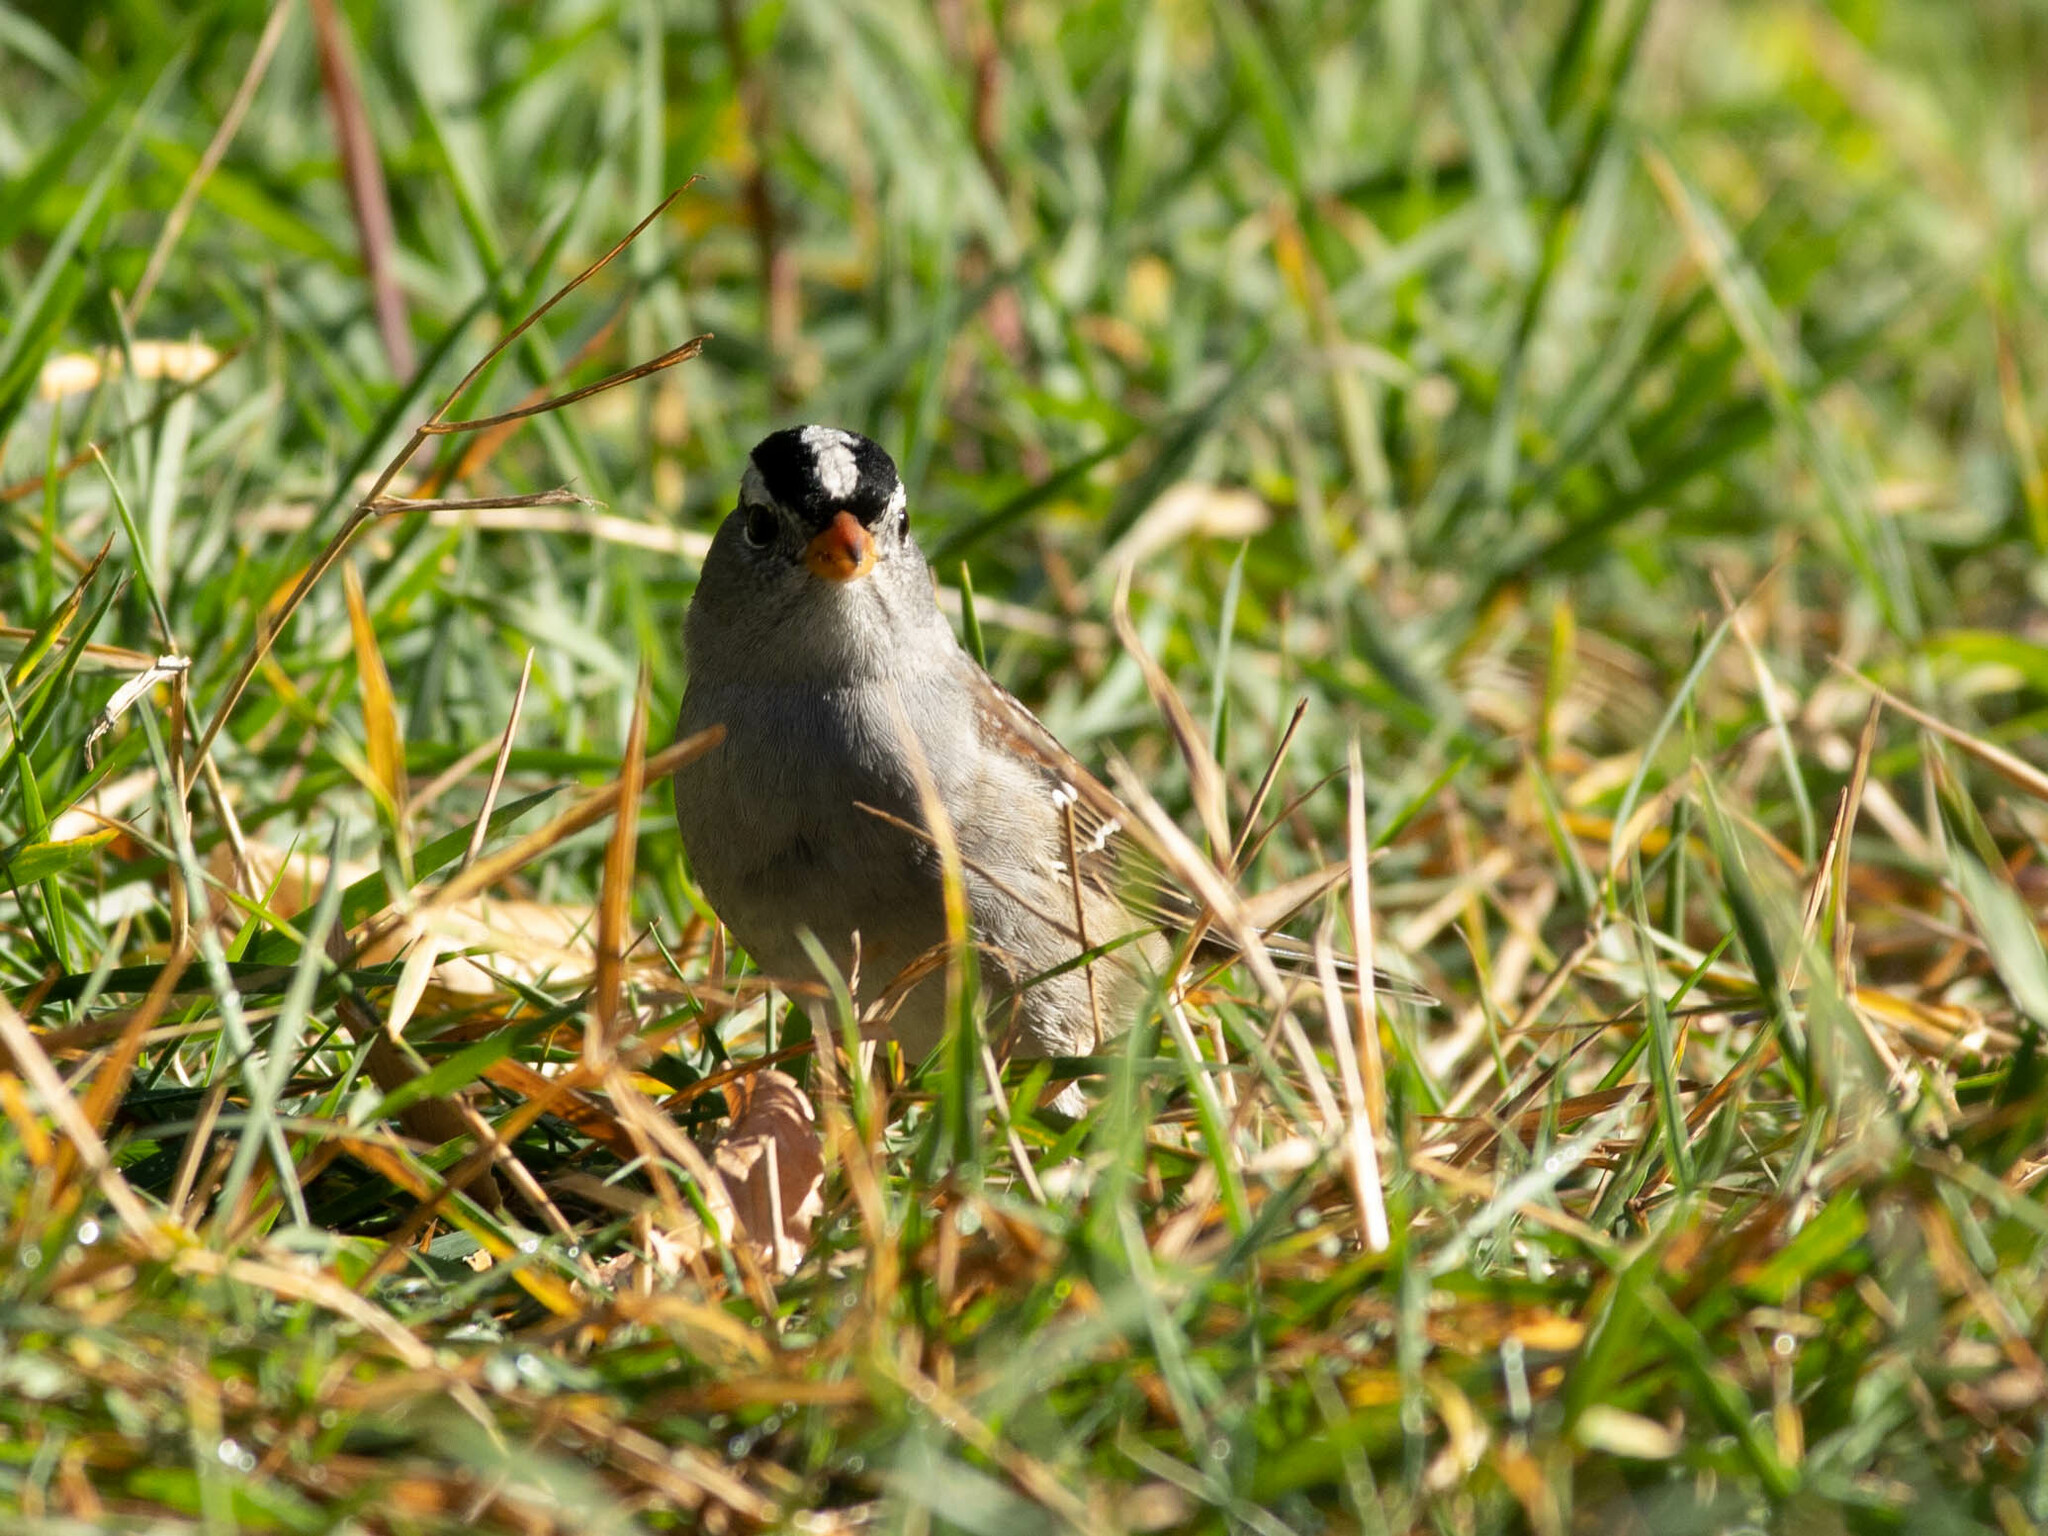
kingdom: Animalia
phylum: Chordata
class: Aves
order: Passeriformes
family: Passerellidae
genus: Zonotrichia
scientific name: Zonotrichia leucophrys
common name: White-crowned sparrow
